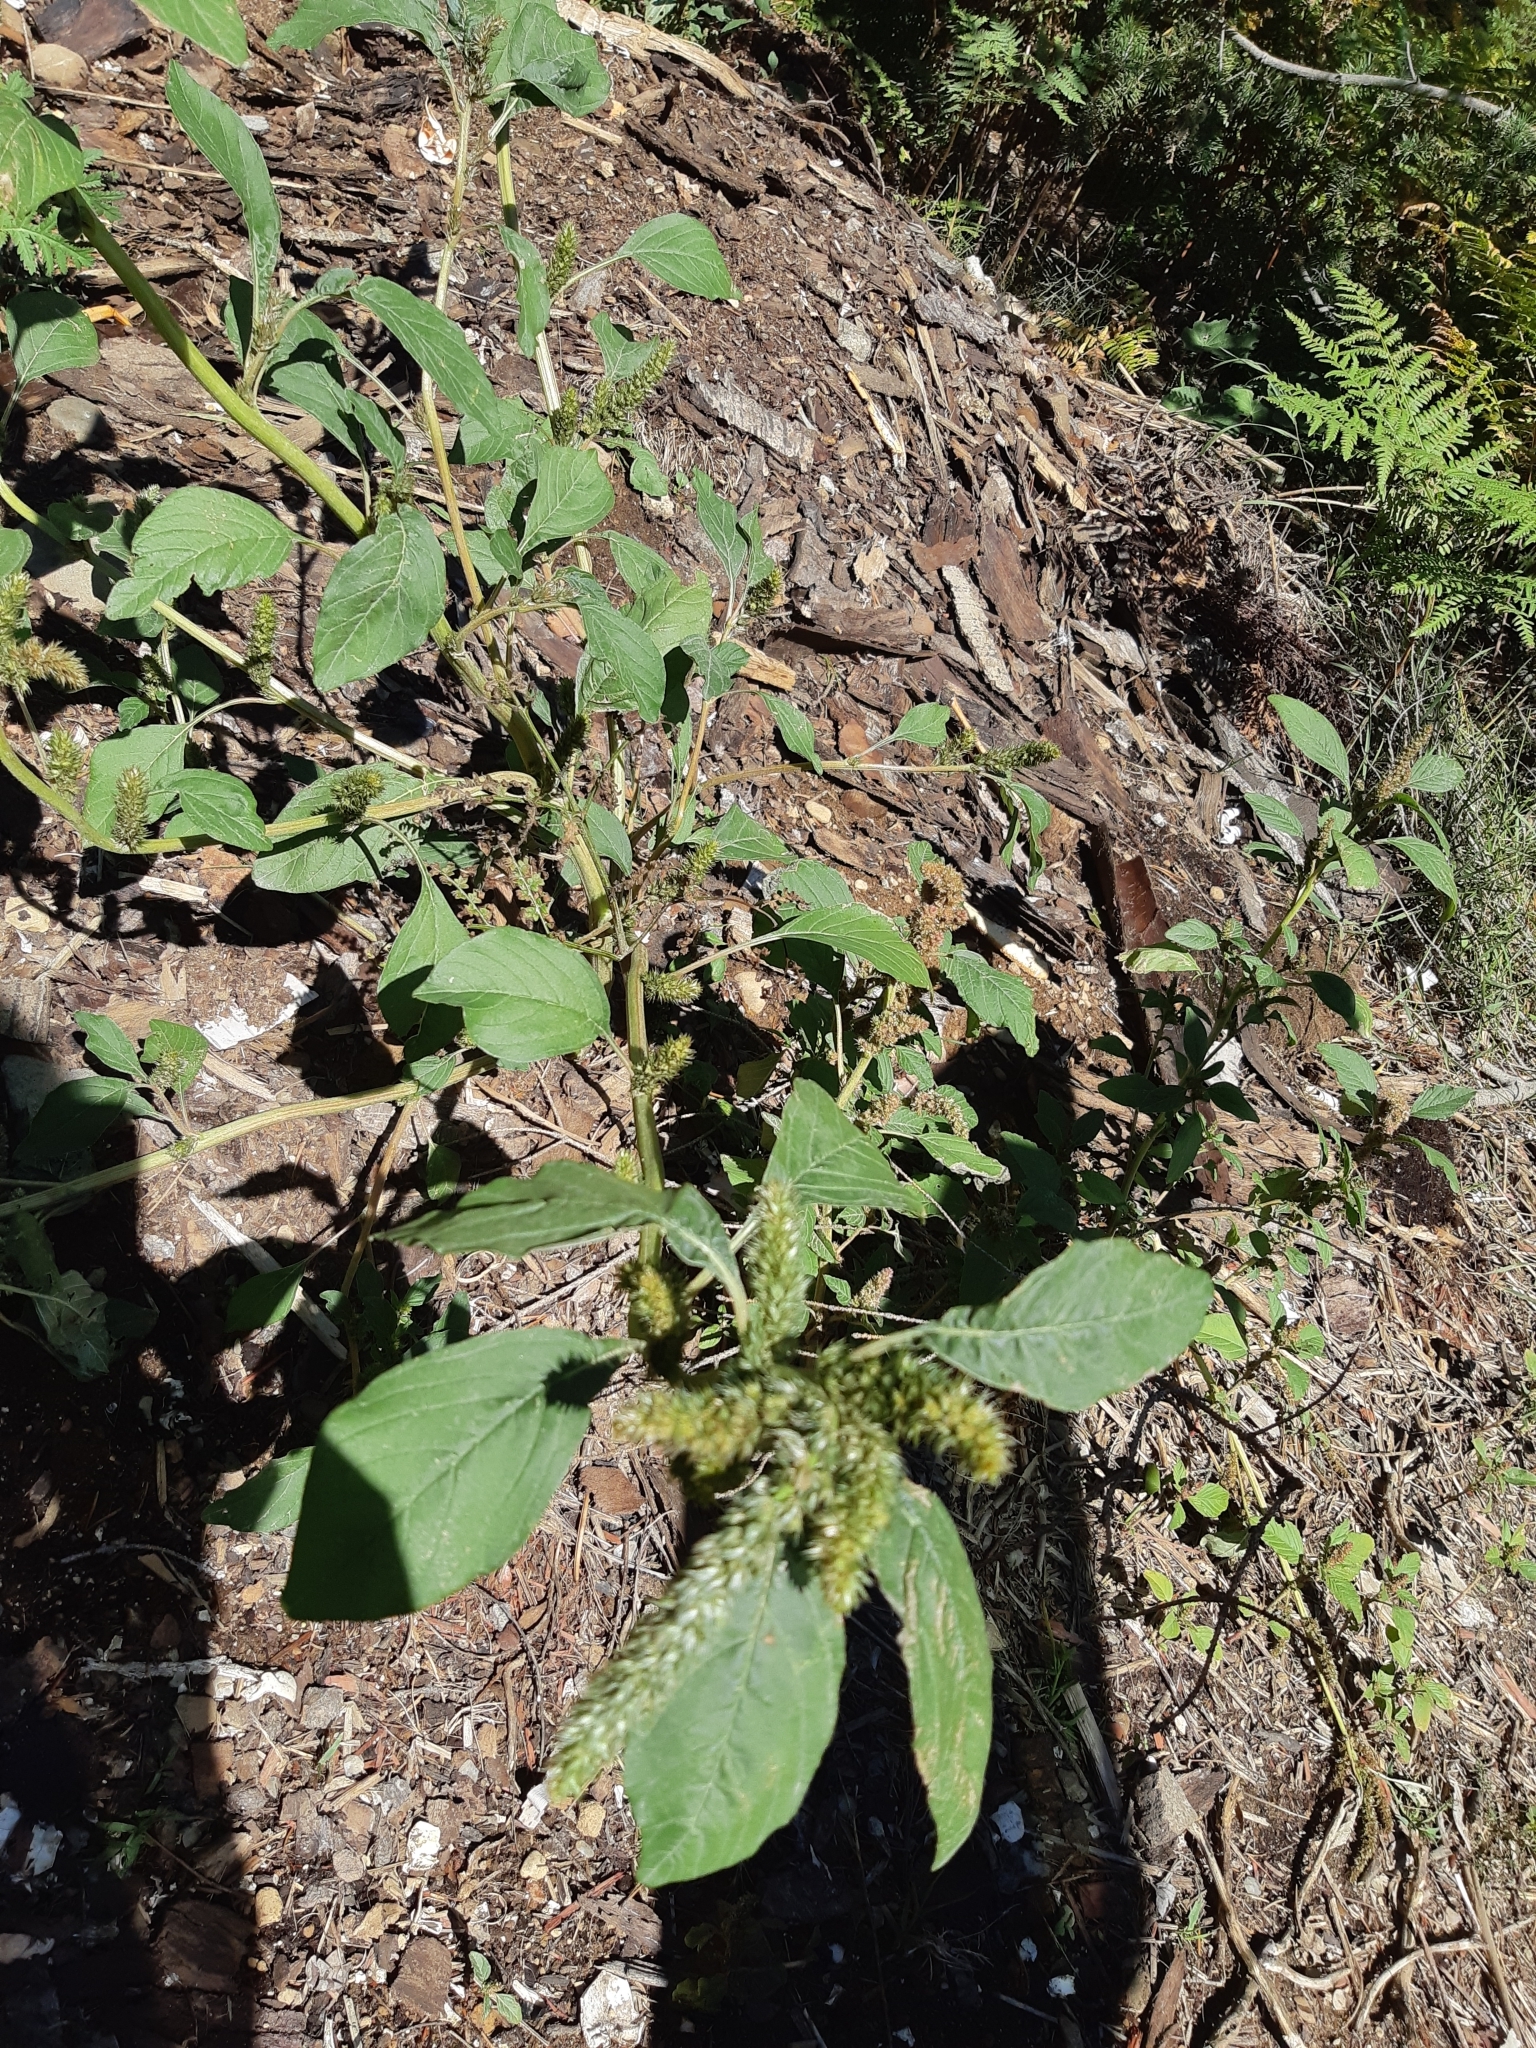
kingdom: Plantae
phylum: Tracheophyta
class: Magnoliopsida
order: Caryophyllales
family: Amaranthaceae
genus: Amaranthus
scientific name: Amaranthus retroflexus
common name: Redroot amaranth
